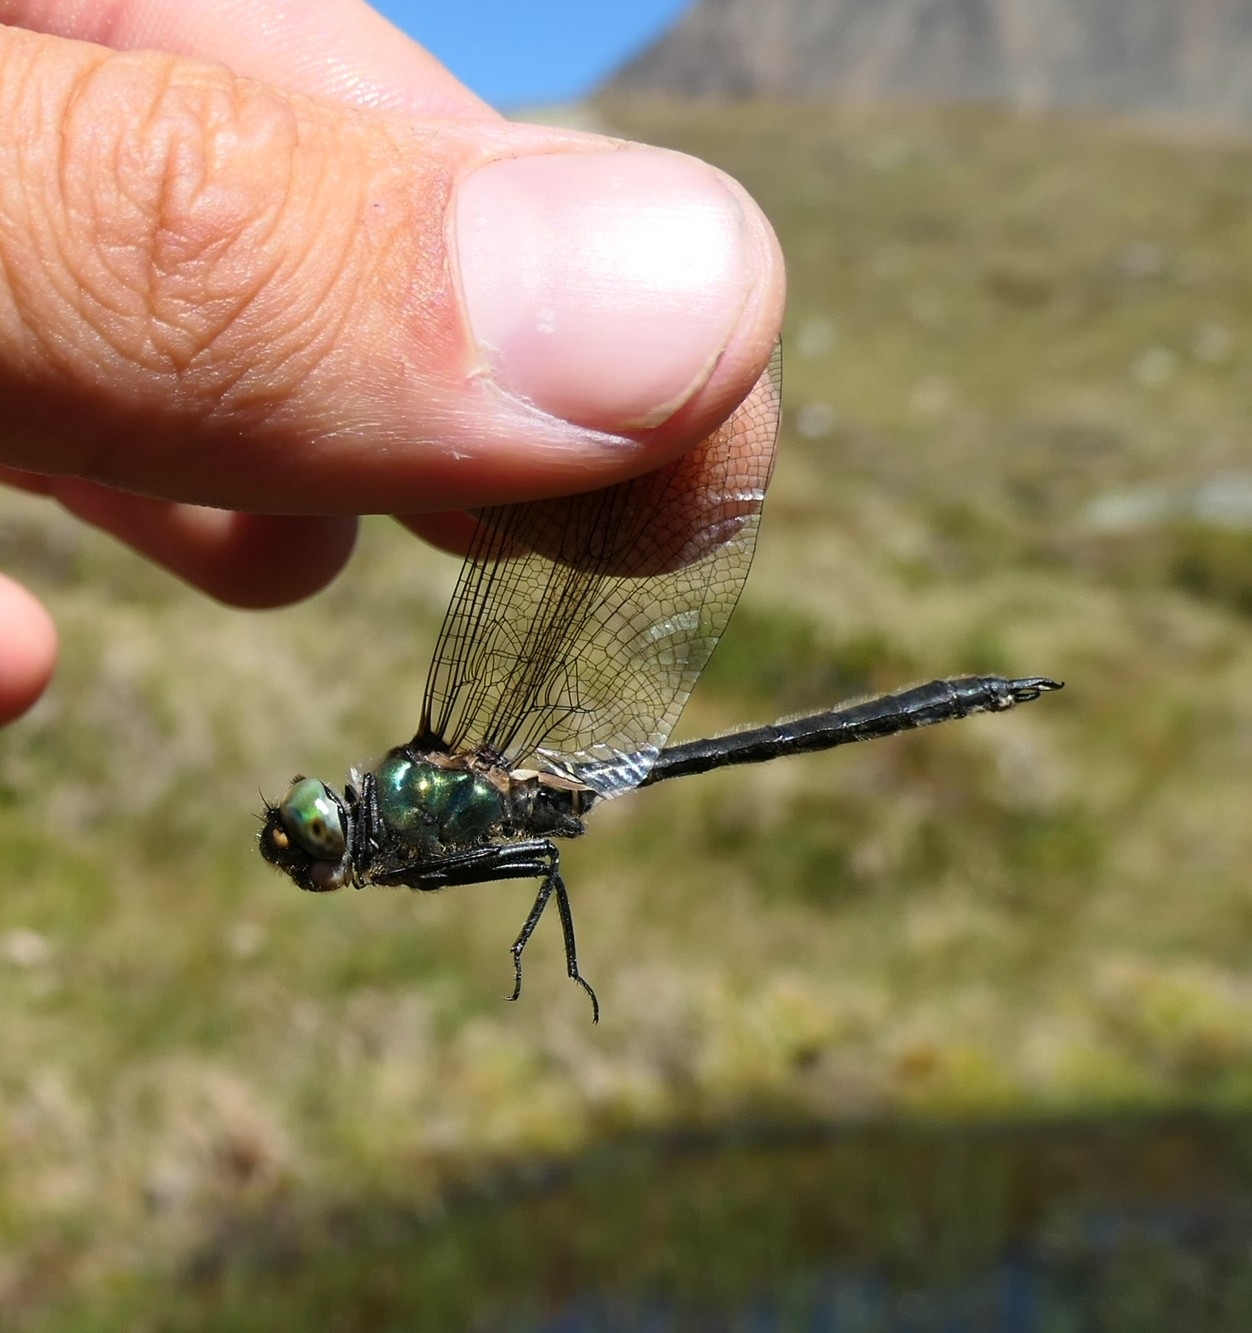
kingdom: Animalia
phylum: Arthropoda
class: Insecta
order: Odonata
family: Corduliidae
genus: Somatochlora
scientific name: Somatochlora alpestris
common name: Alpine emerald
